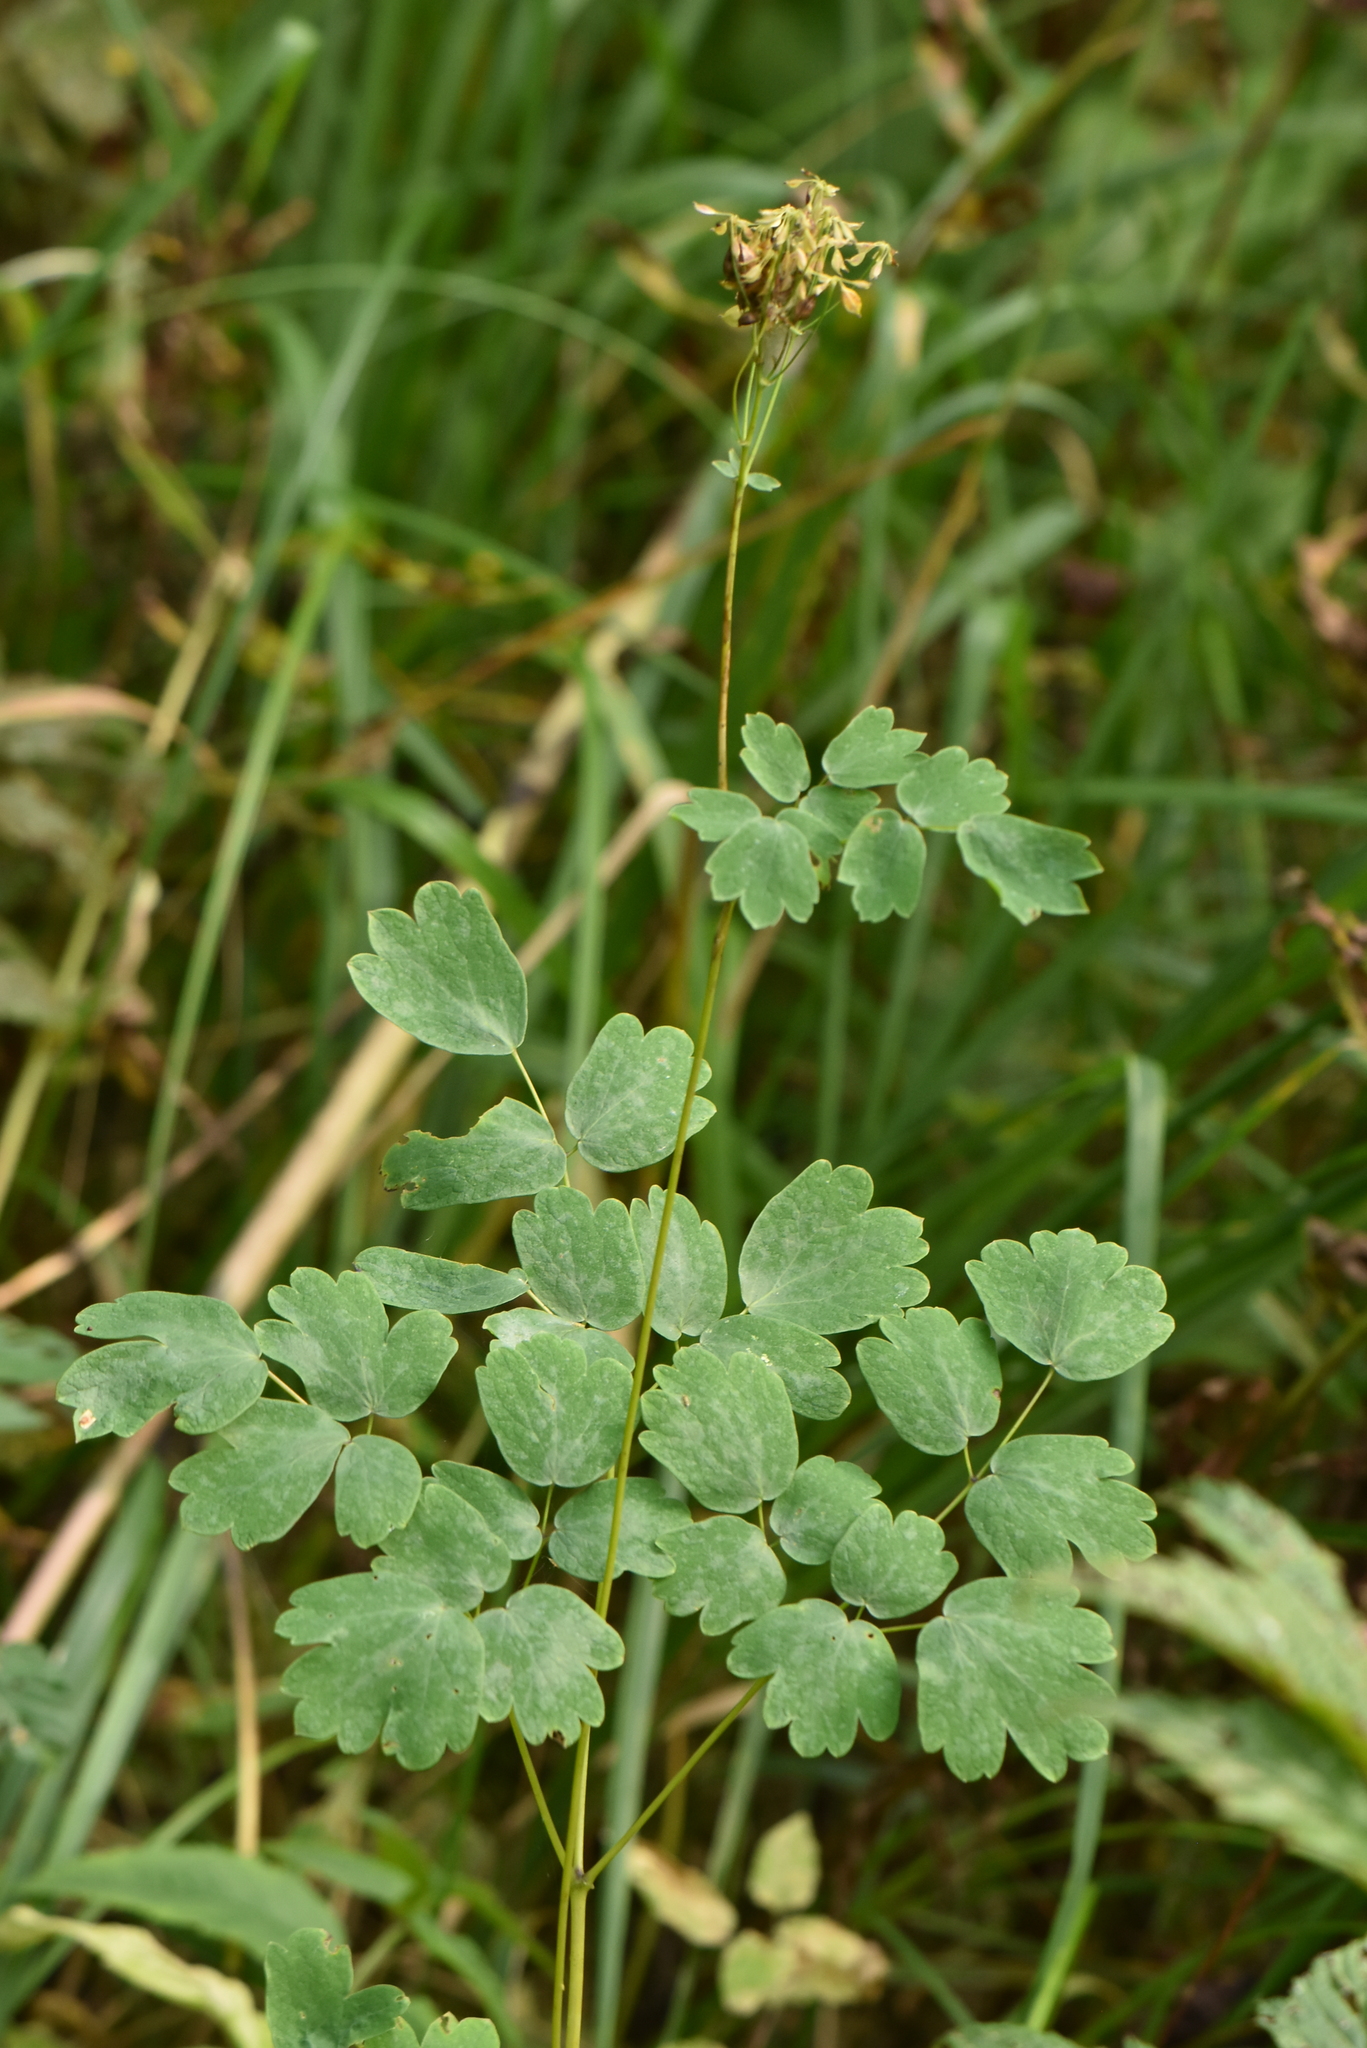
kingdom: Plantae
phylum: Tracheophyta
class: Magnoliopsida
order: Ranunculales
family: Ranunculaceae
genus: Thalictrum
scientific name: Thalictrum aquilegiifolium
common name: French meadow-rue
